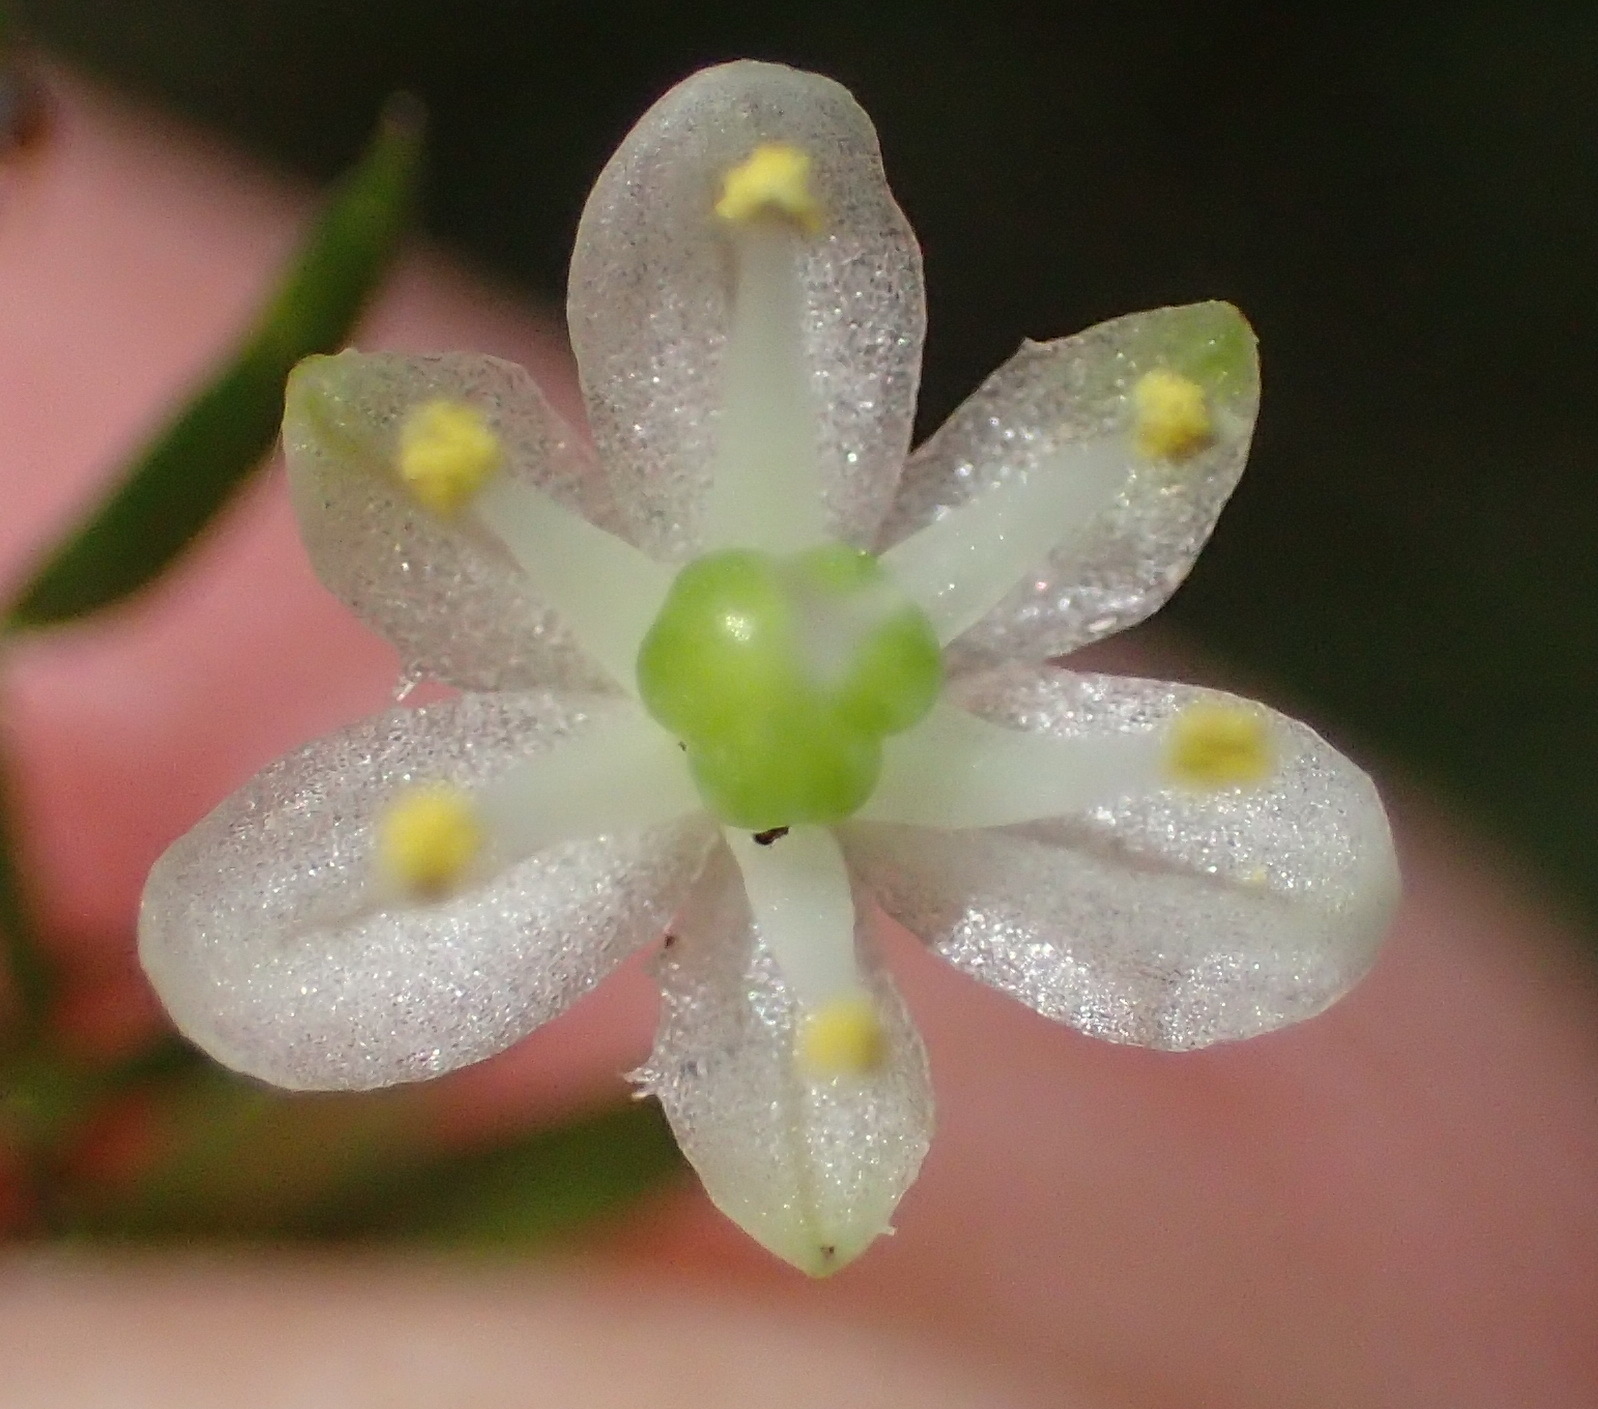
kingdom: Plantae
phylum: Tracheophyta
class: Liliopsida
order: Asparagales
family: Asparagaceae
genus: Asparagus
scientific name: Asparagus scandens
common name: Asparagus-fern
